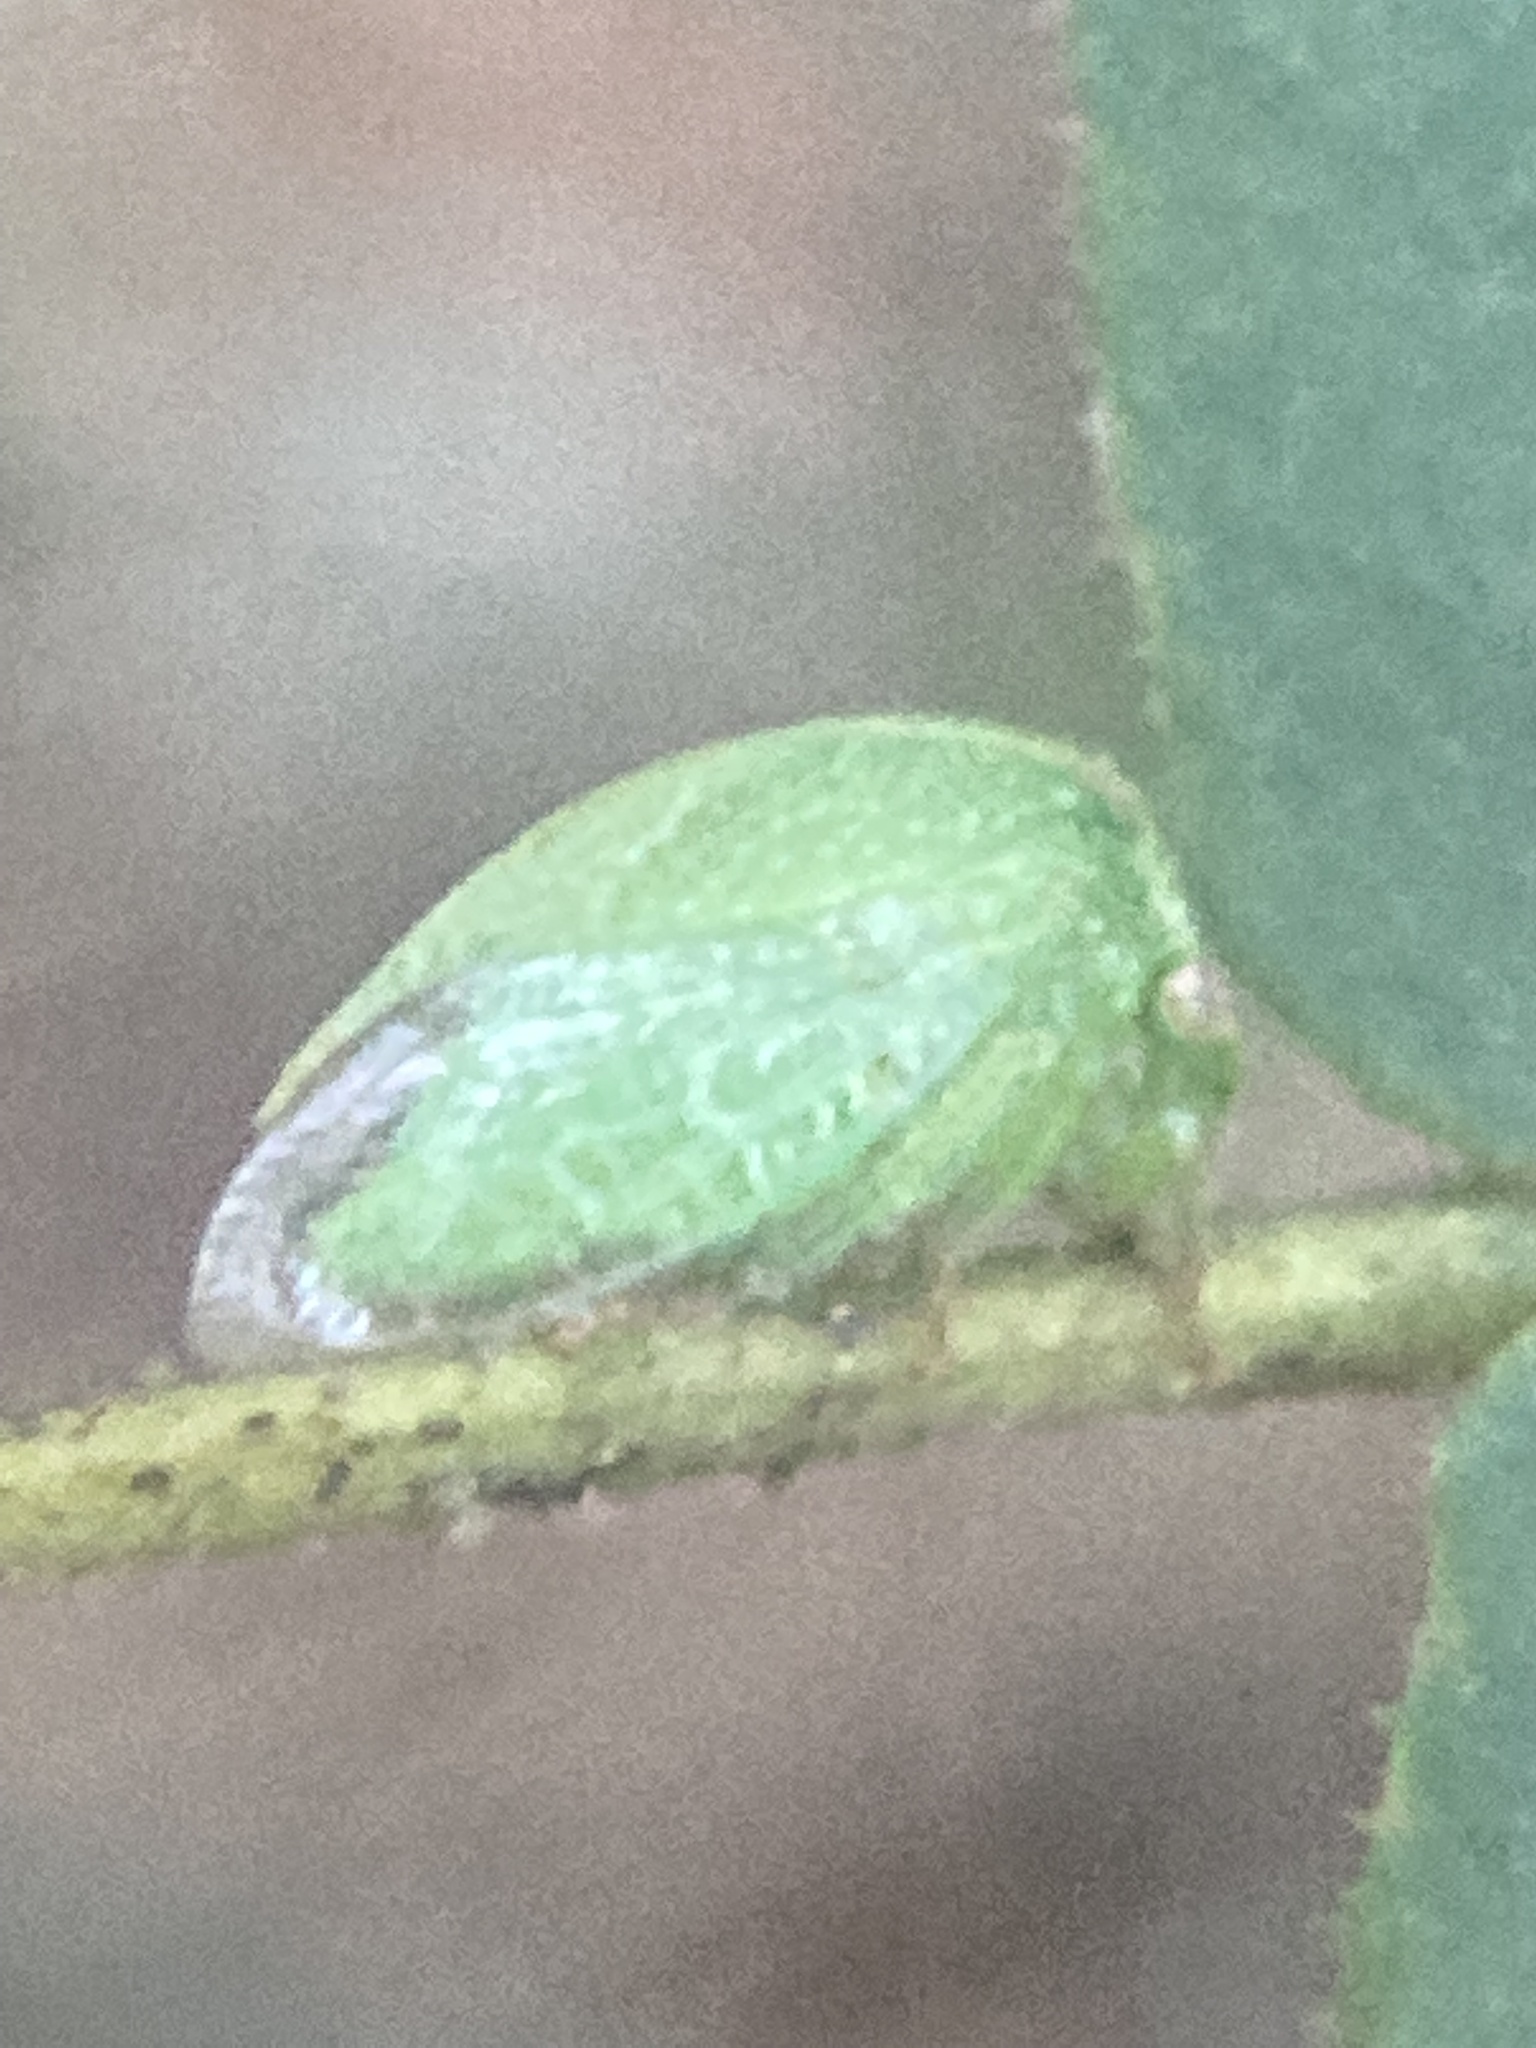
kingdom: Animalia
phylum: Arthropoda
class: Insecta
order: Hemiptera
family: Membracidae
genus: Spissistilus
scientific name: Spissistilus festina
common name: Membracid bug
